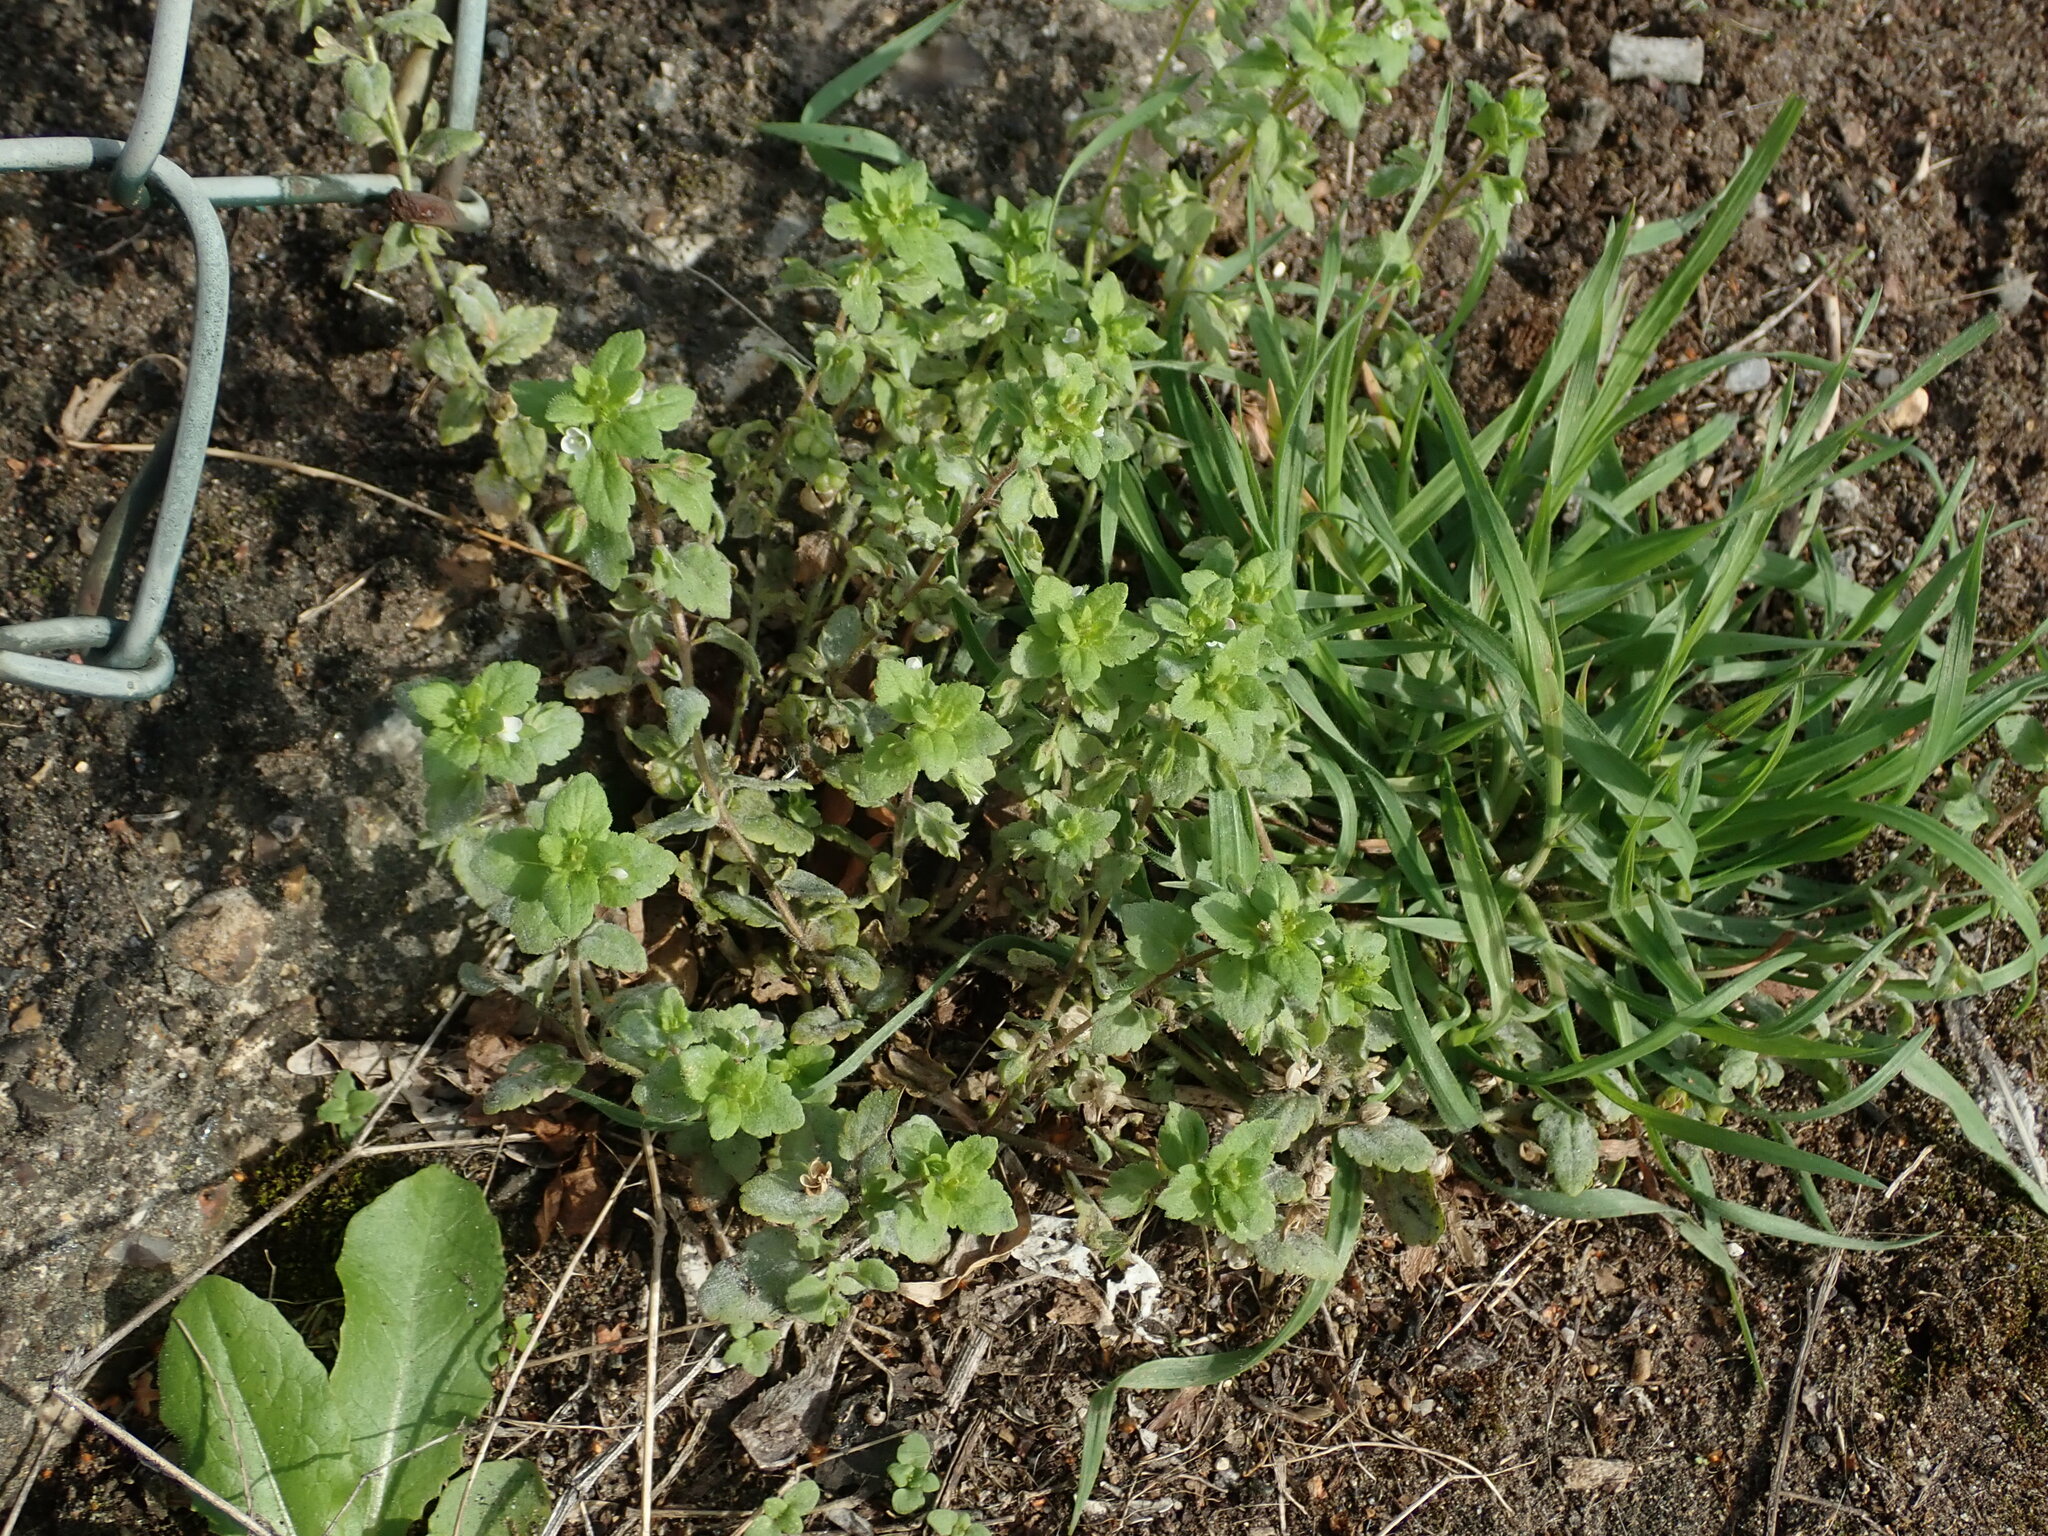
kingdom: Plantae
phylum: Tracheophyta
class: Magnoliopsida
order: Lamiales
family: Plantaginaceae
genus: Veronica
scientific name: Veronica agrestis
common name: Green field-speedwell
